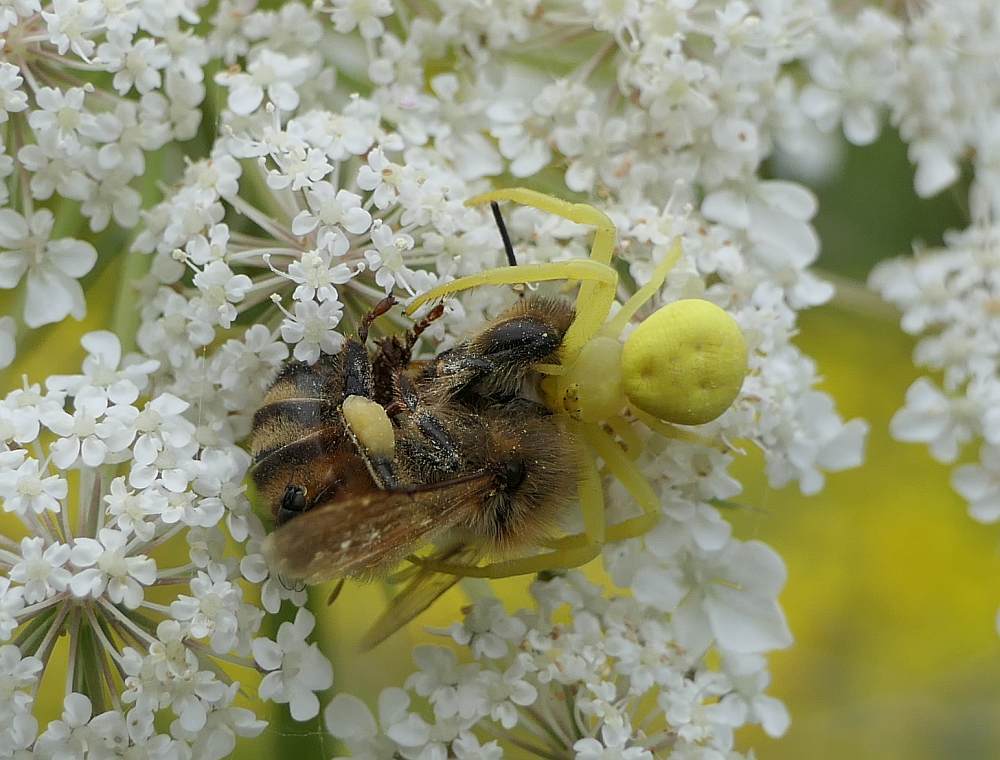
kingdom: Animalia
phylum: Arthropoda
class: Arachnida
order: Araneae
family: Thomisidae
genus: Misumena
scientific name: Misumena vatia
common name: Goldenrod crab spider
